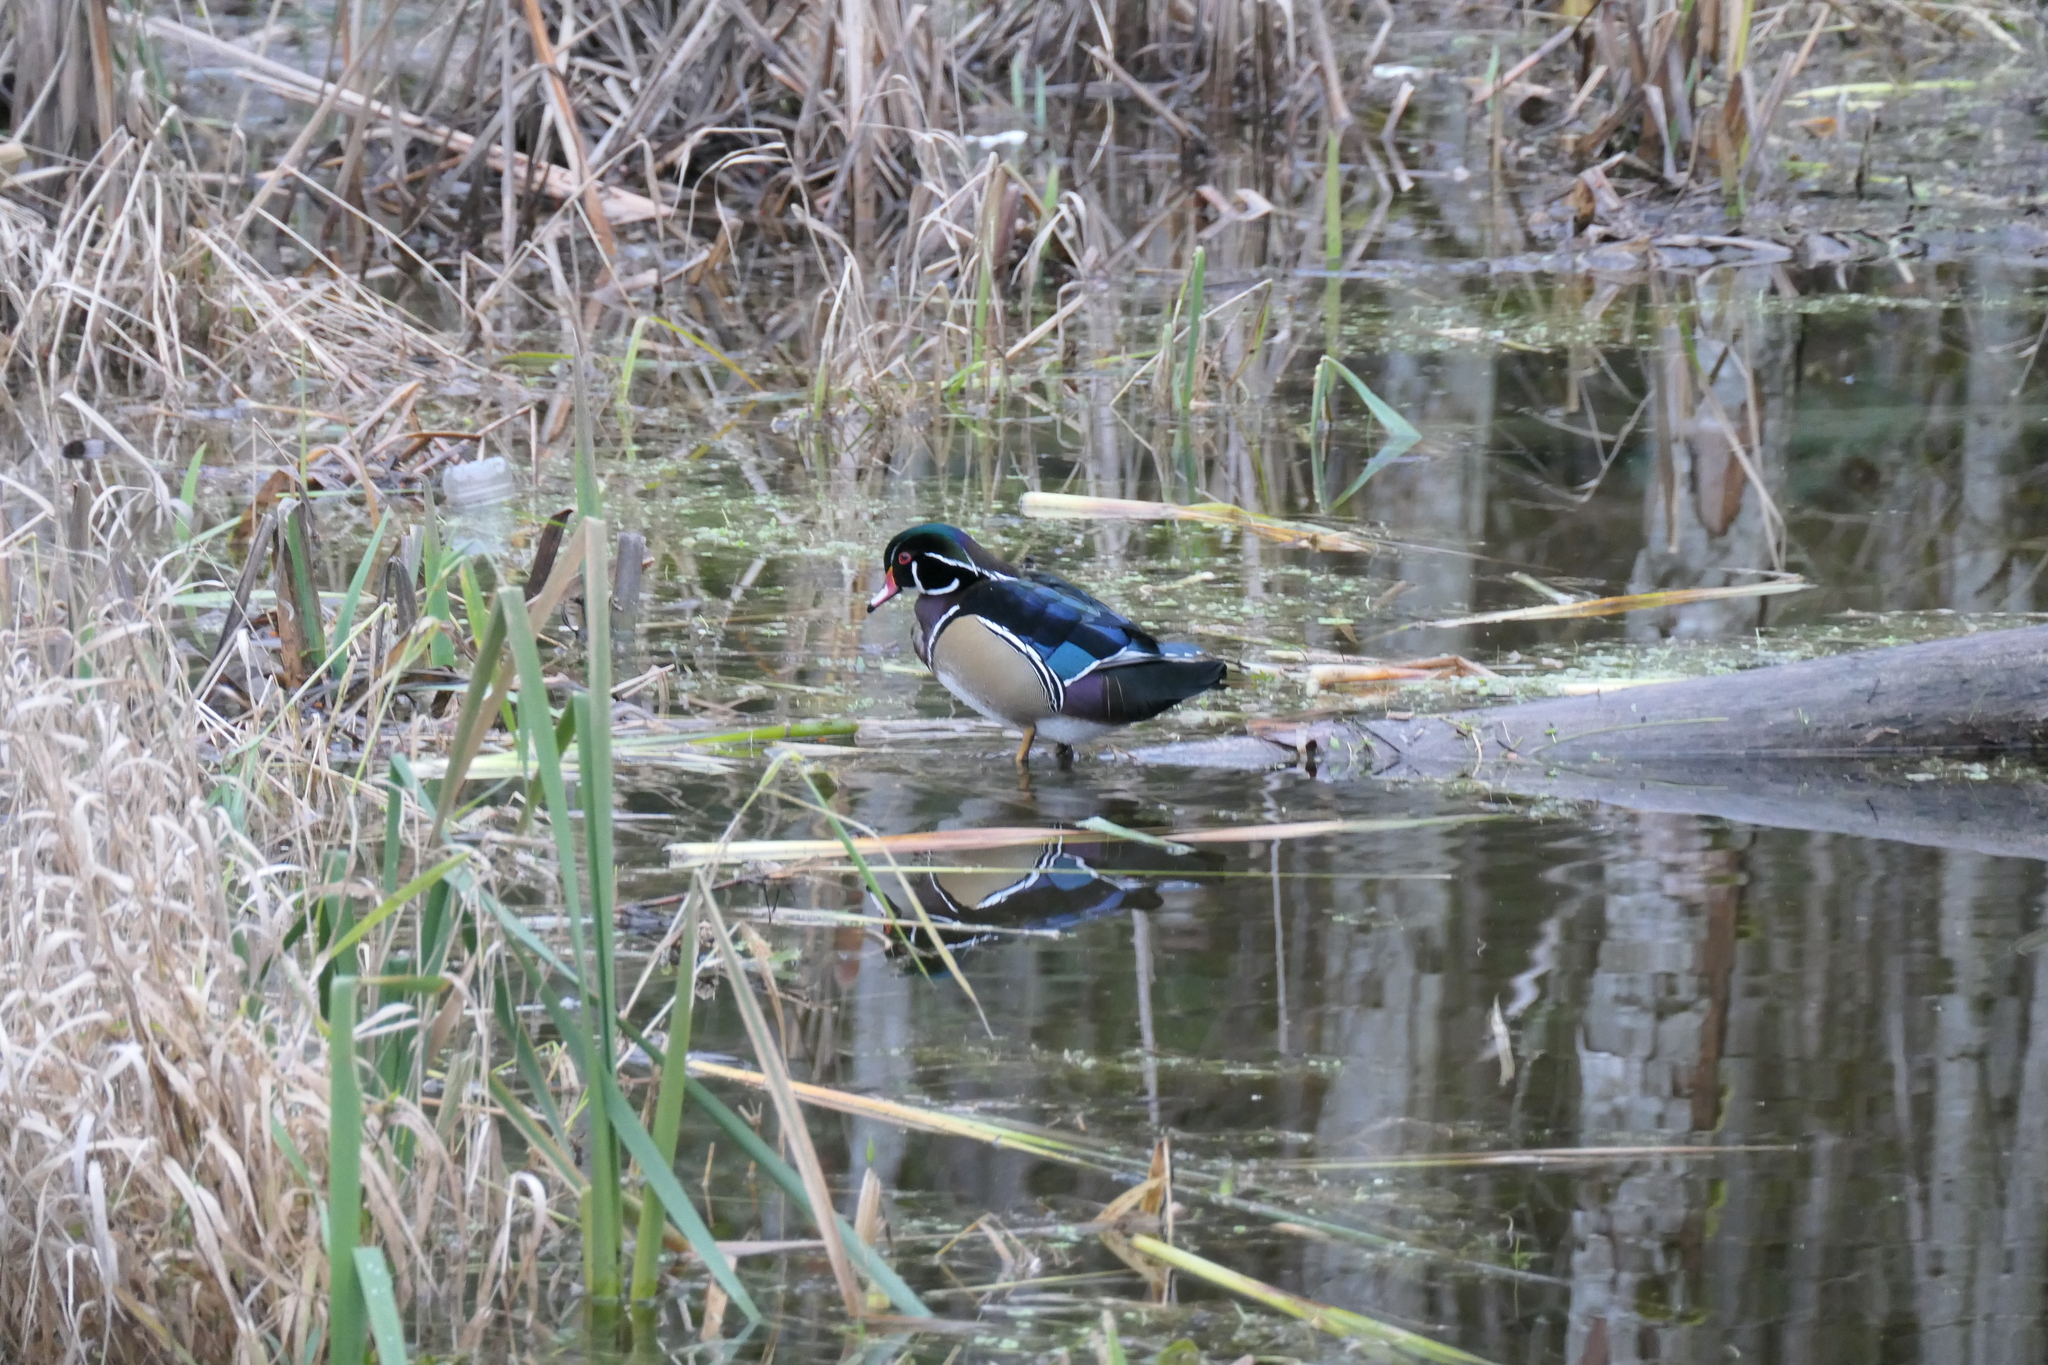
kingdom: Animalia
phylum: Chordata
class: Aves
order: Anseriformes
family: Anatidae
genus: Aix
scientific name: Aix sponsa
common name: Wood duck
